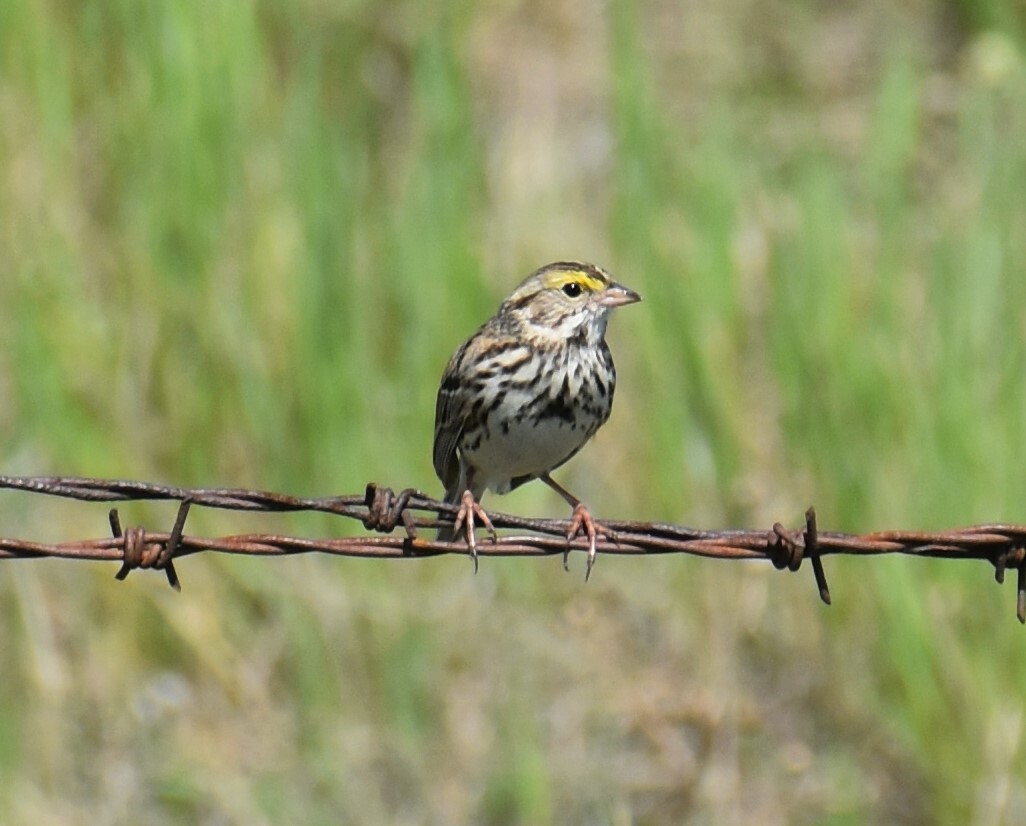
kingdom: Animalia
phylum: Chordata
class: Aves
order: Passeriformes
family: Passerellidae
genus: Passerculus
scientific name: Passerculus sandwichensis
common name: Savannah sparrow
